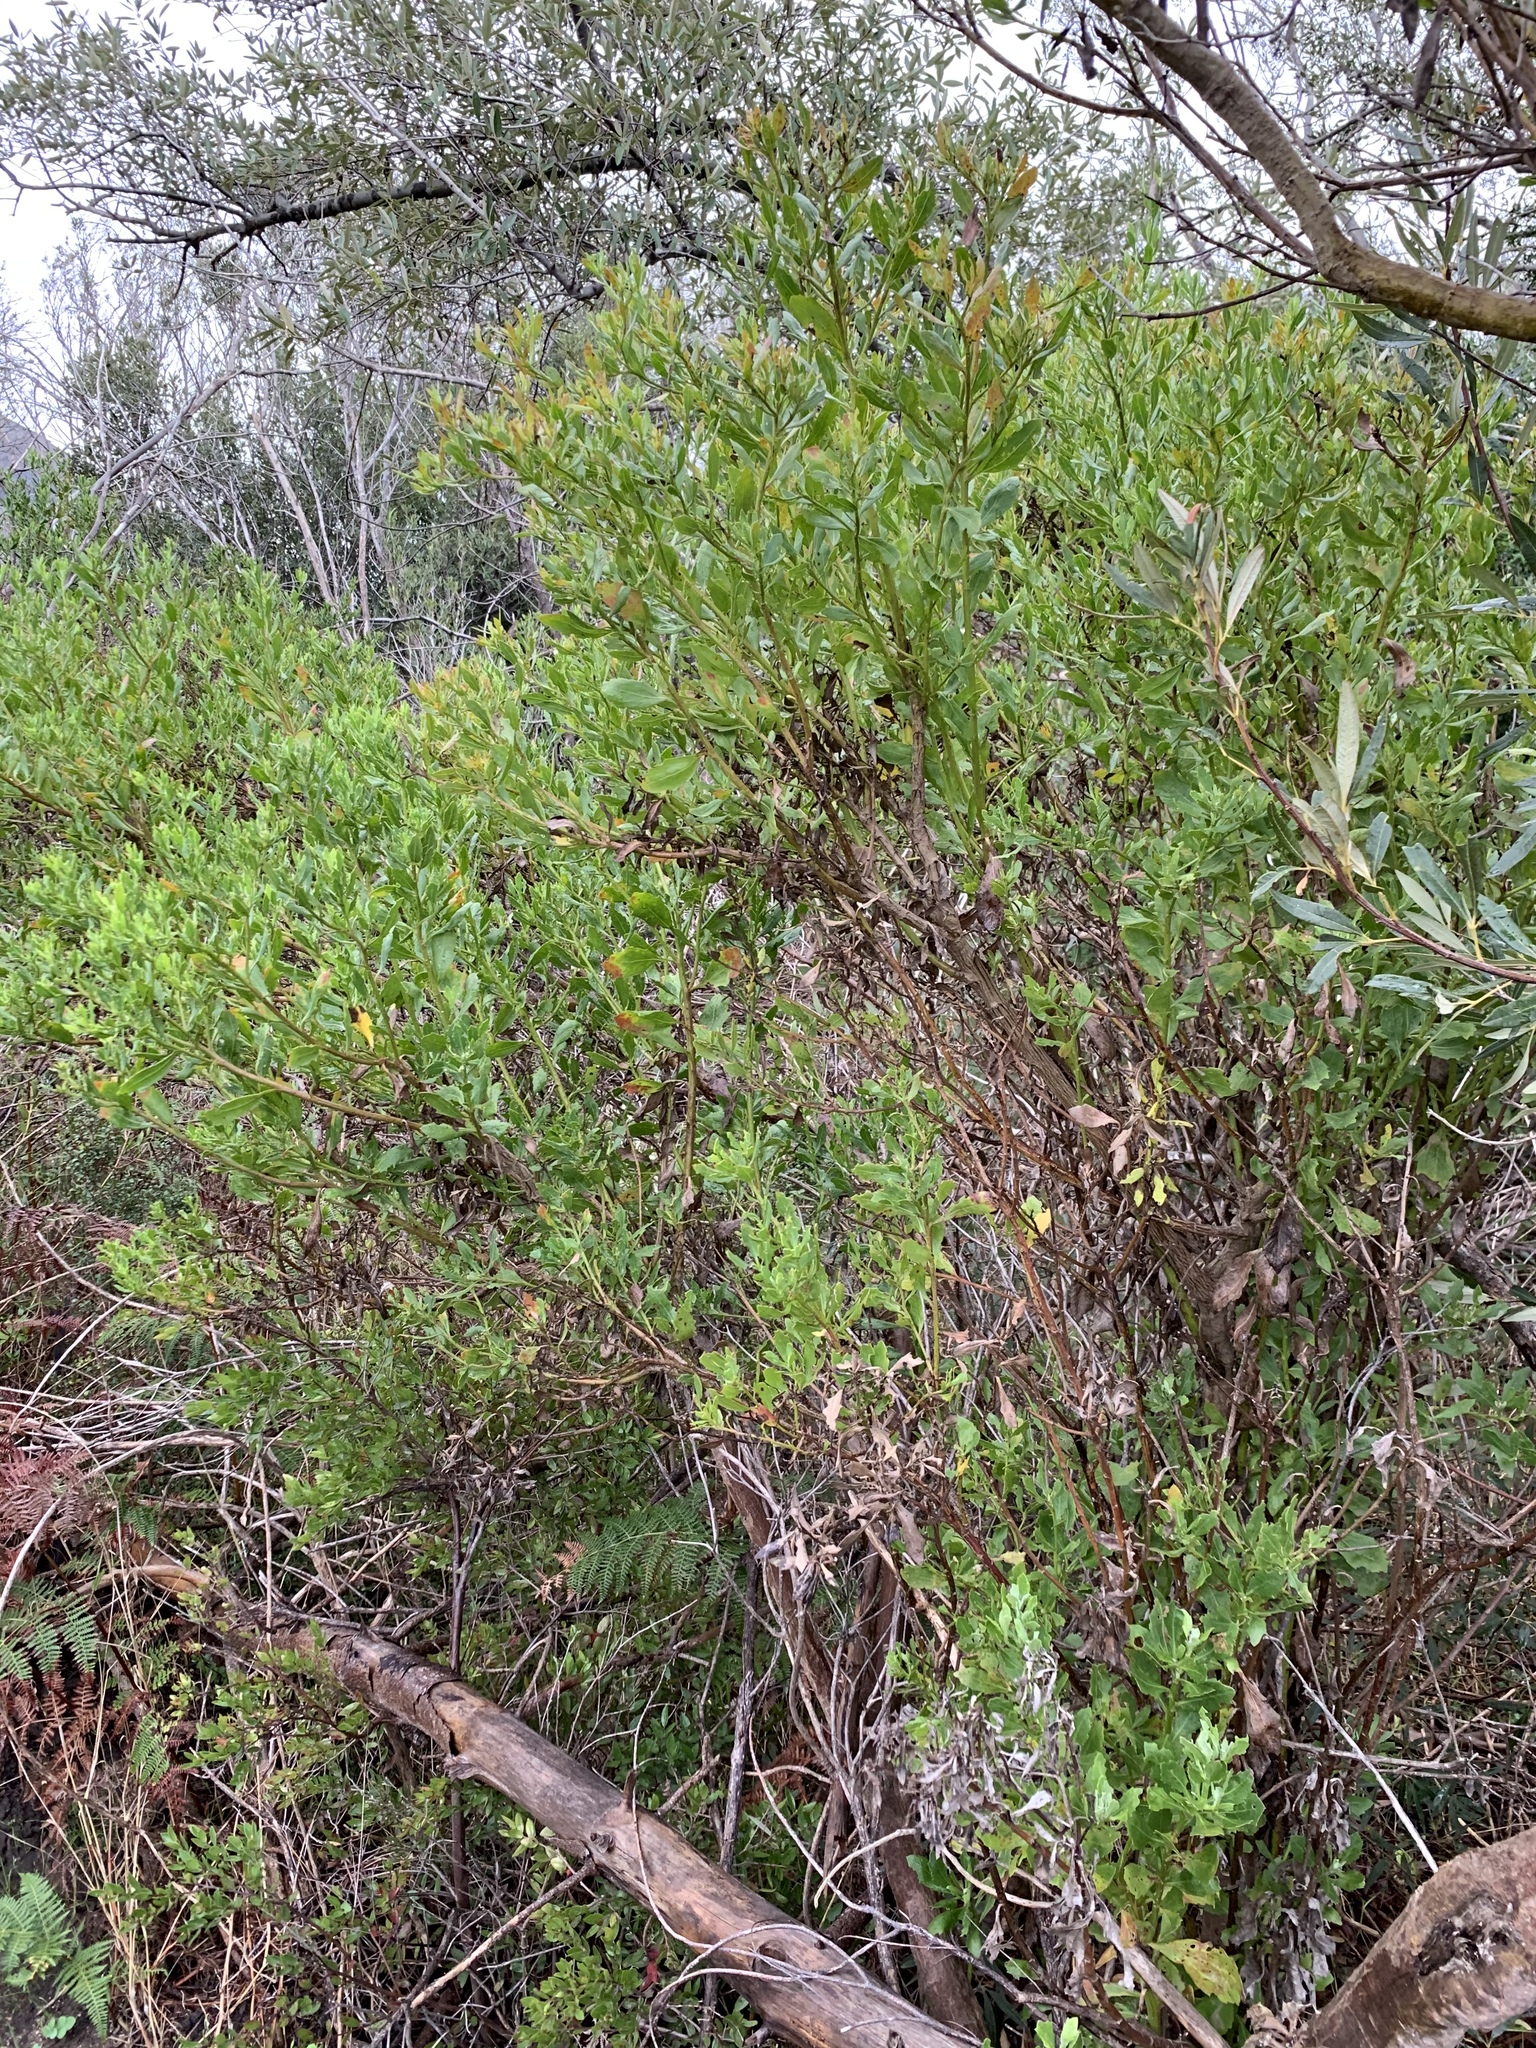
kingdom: Plantae
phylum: Tracheophyta
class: Magnoliopsida
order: Asterales
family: Asteraceae
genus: Osteospermum
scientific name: Osteospermum moniliferum
